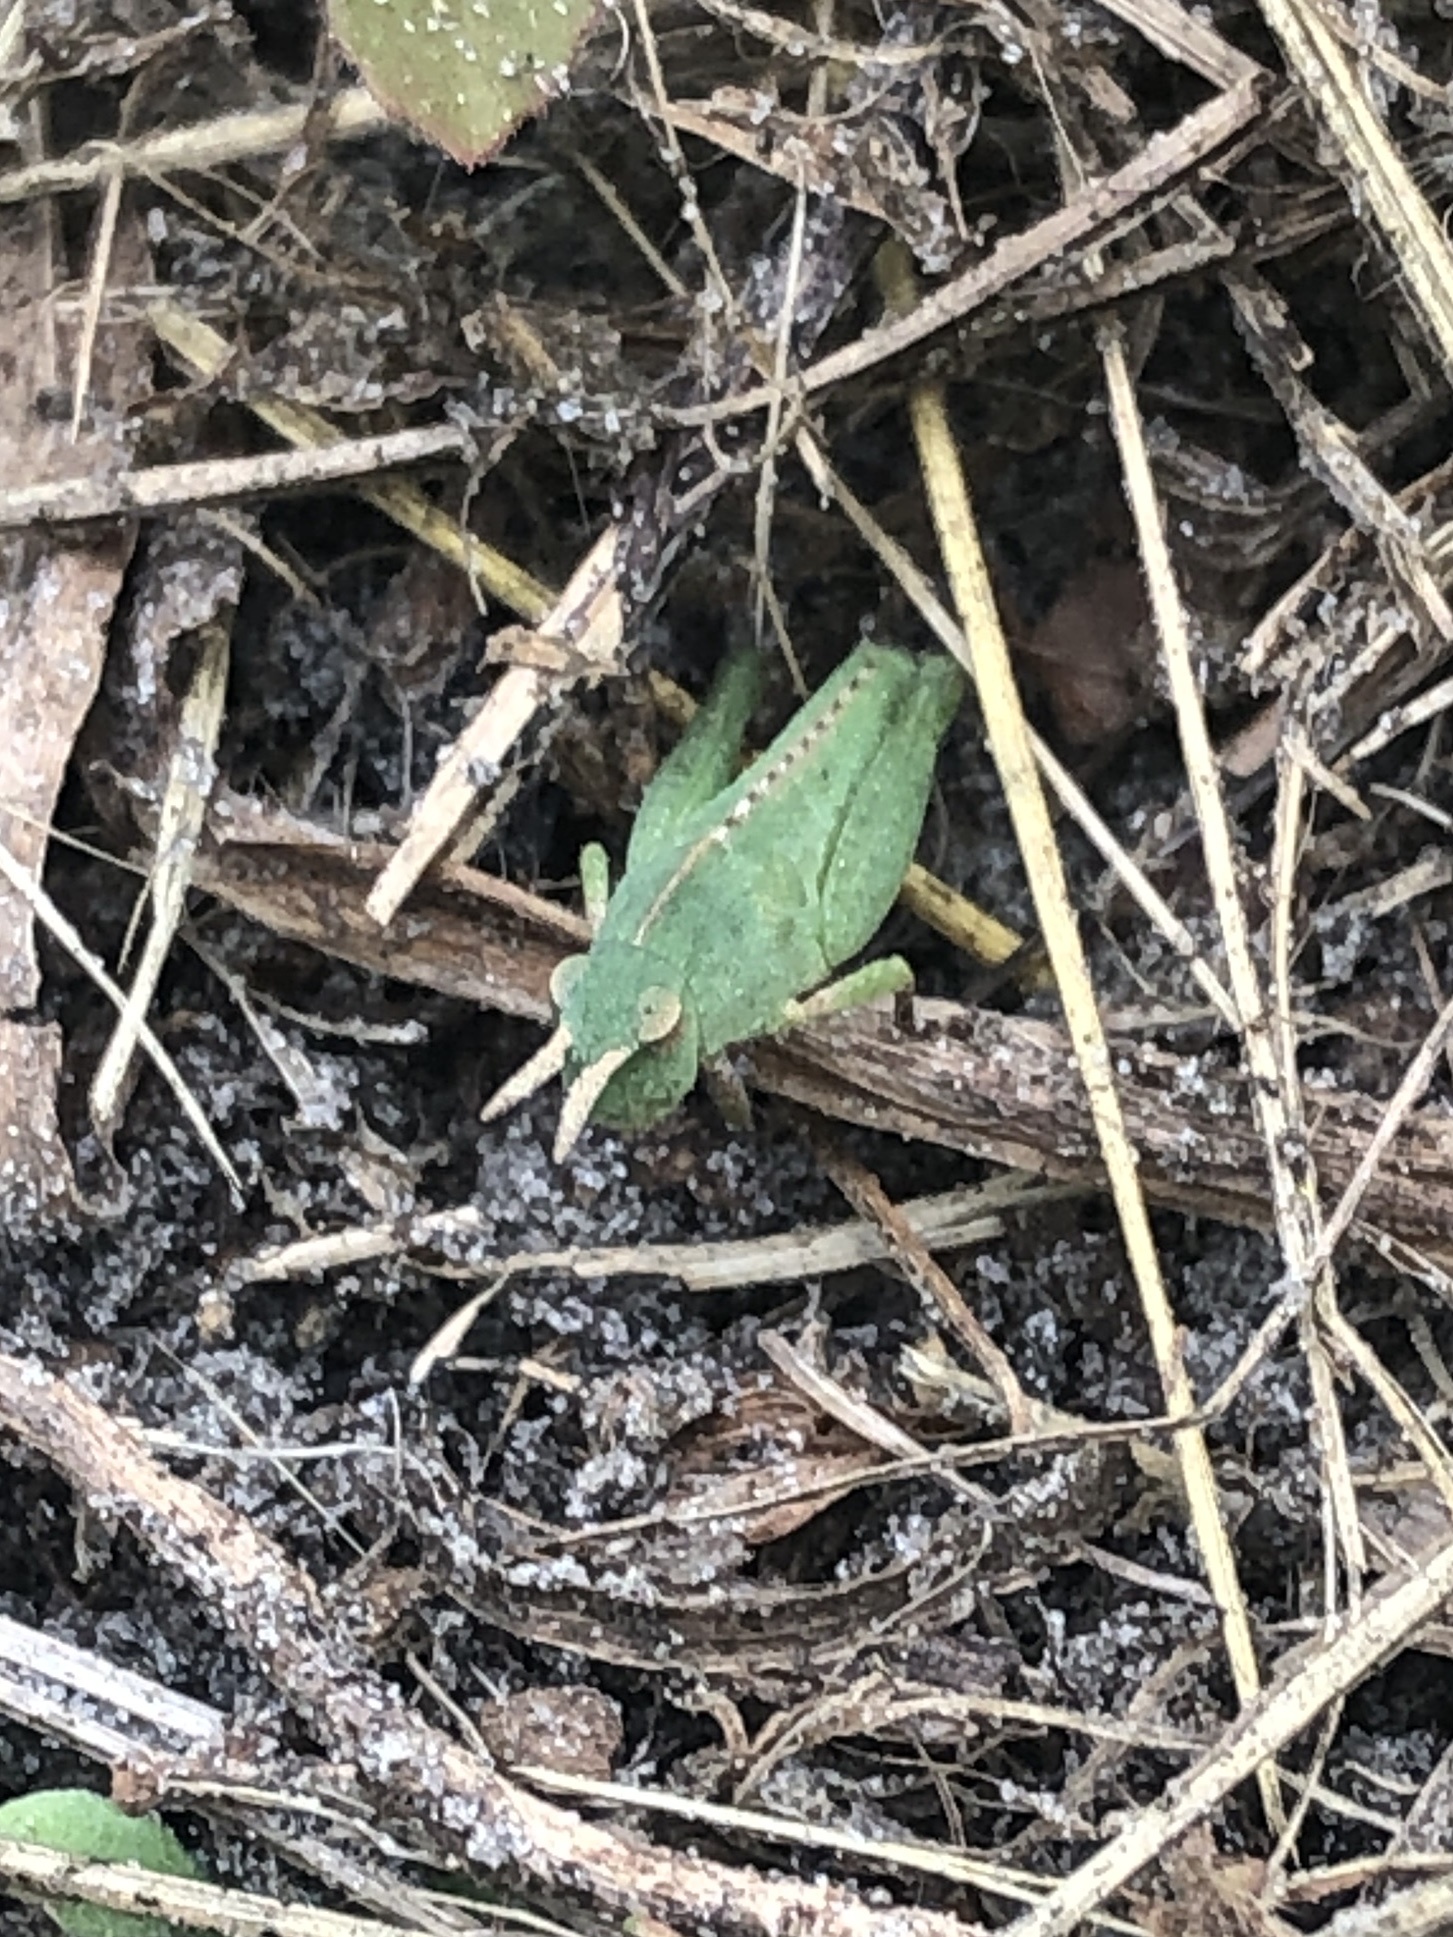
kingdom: Animalia
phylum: Arthropoda
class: Insecta
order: Orthoptera
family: Acrididae
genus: Chortophaga
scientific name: Chortophaga australior
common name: Southern green-striped grasshopper
